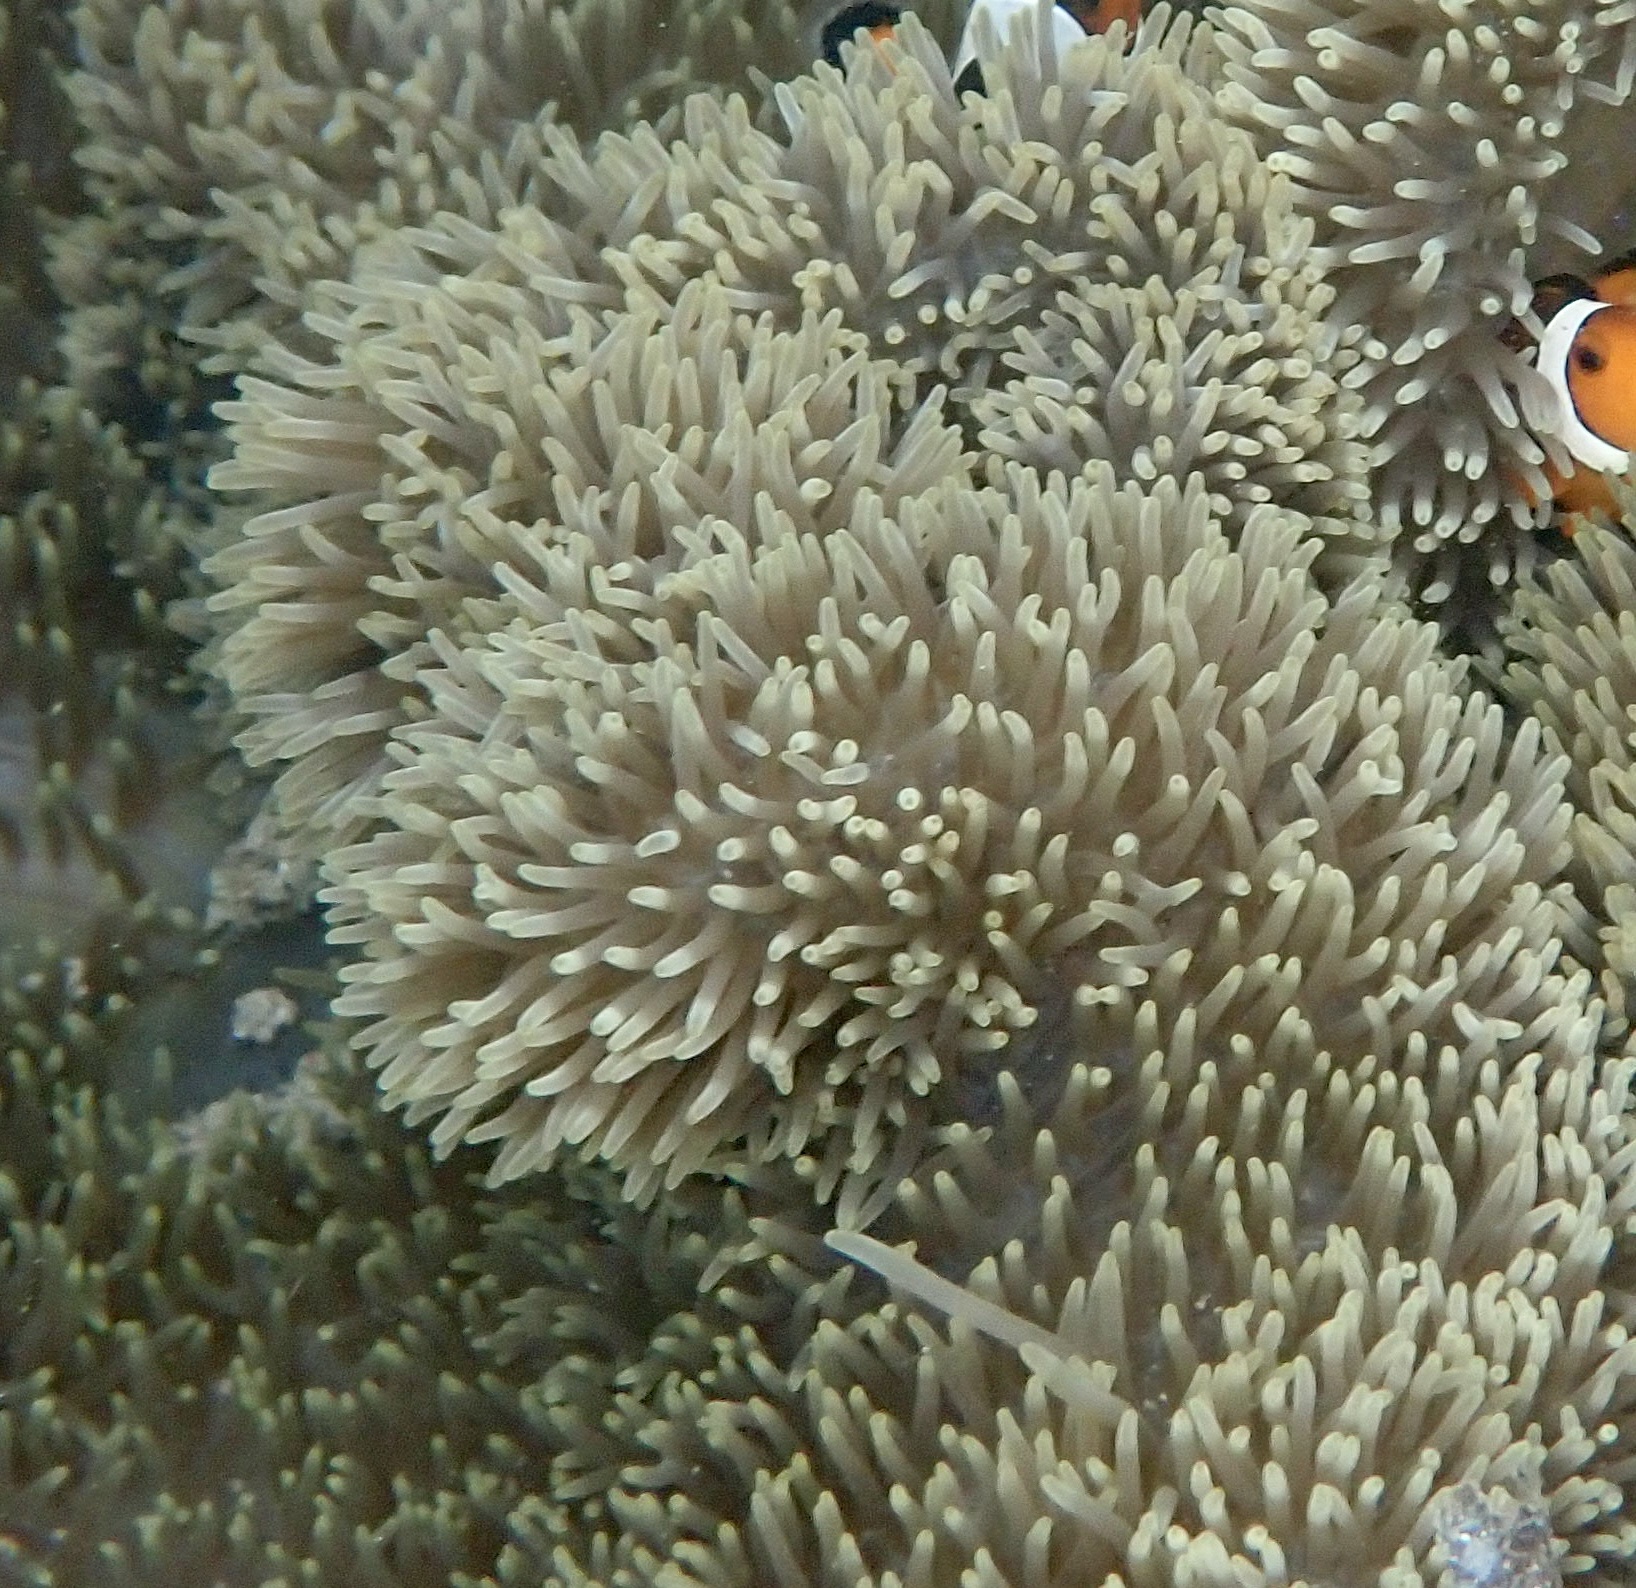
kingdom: Animalia
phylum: Cnidaria
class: Anthozoa
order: Actiniaria
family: Stichodactylidae
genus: Stichodactyla
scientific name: Stichodactyla gigantea
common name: Giant anemone
